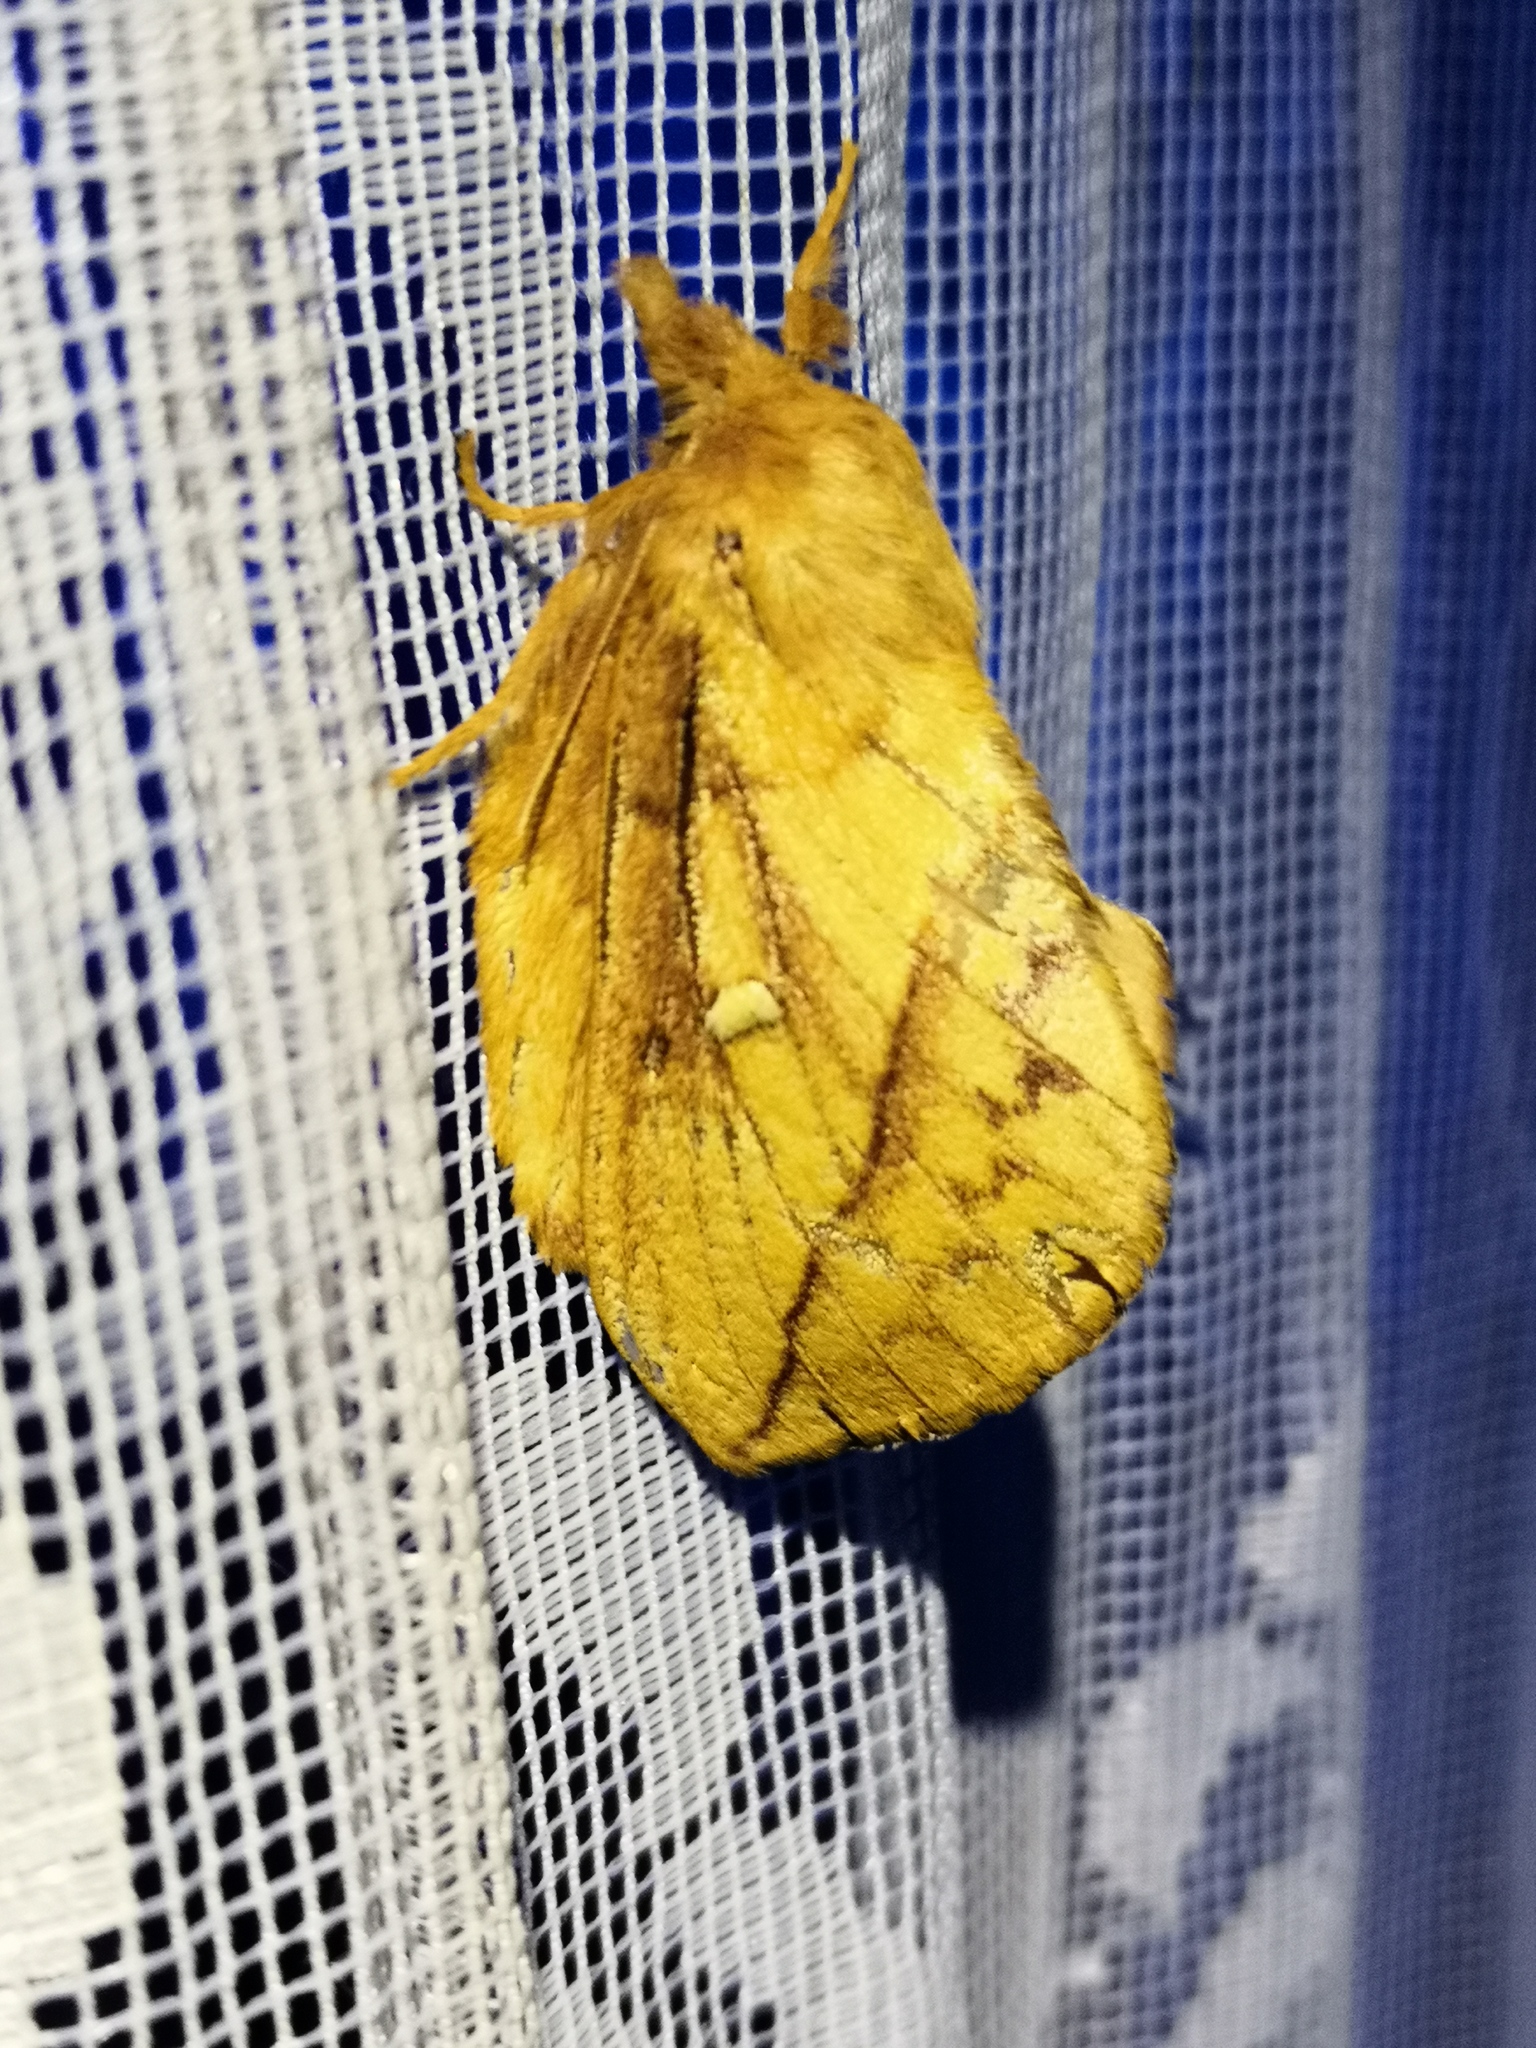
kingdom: Animalia
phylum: Arthropoda
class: Insecta
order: Lepidoptera
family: Lasiocampidae
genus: Euthrix
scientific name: Euthrix potatoria
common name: Drinker
